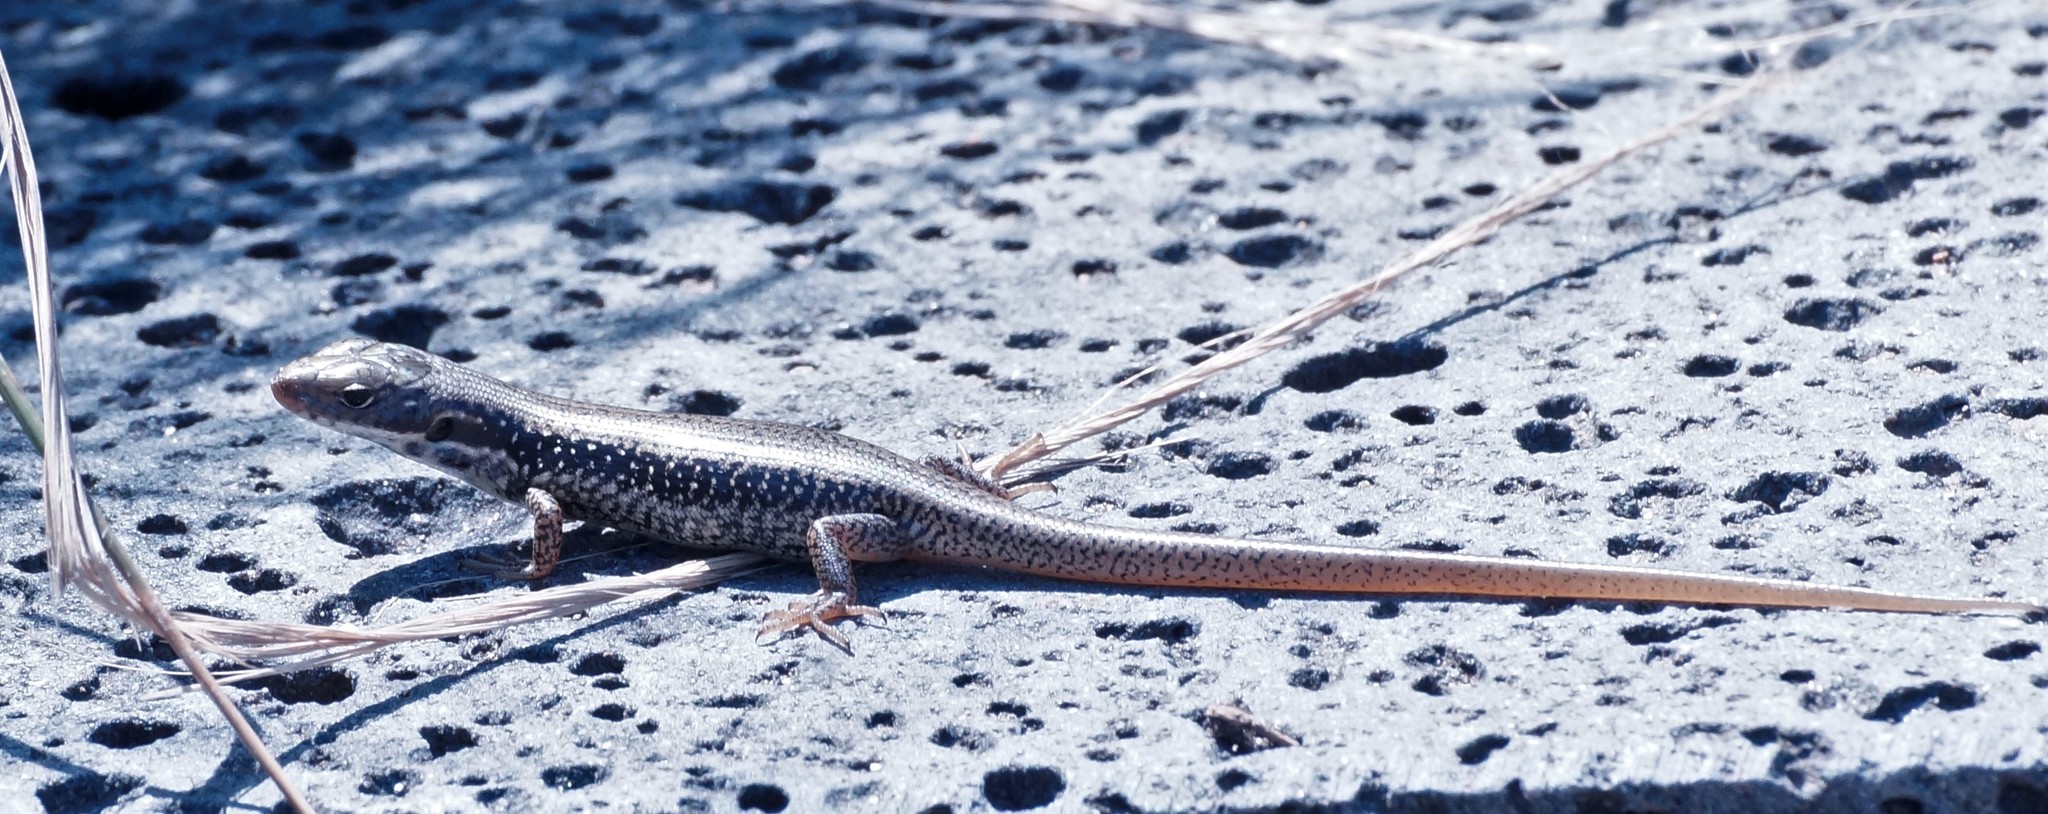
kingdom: Animalia
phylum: Chordata
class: Squamata
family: Scincidae
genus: Eulamprus
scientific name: Eulamprus tympanum
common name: Cool-temperate water-skink
